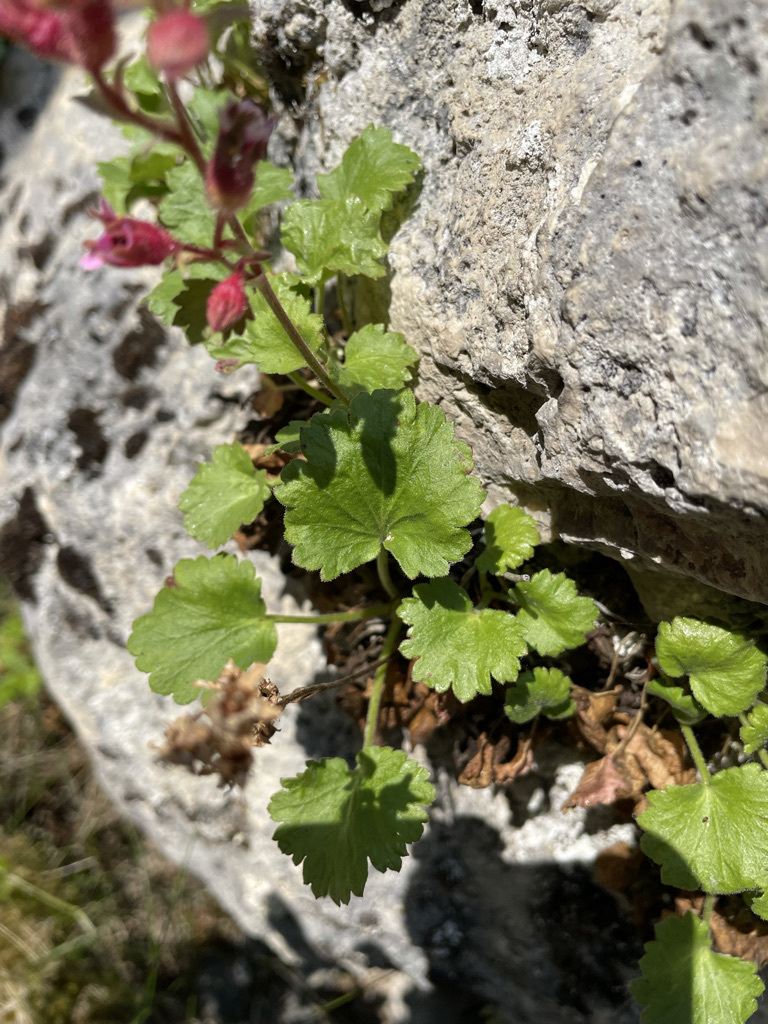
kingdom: Plantae
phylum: Tracheophyta
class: Magnoliopsida
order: Saxifragales
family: Saxifragaceae
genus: Telesonix
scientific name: Telesonix heucheriformis
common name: Alumroot brookfoam
